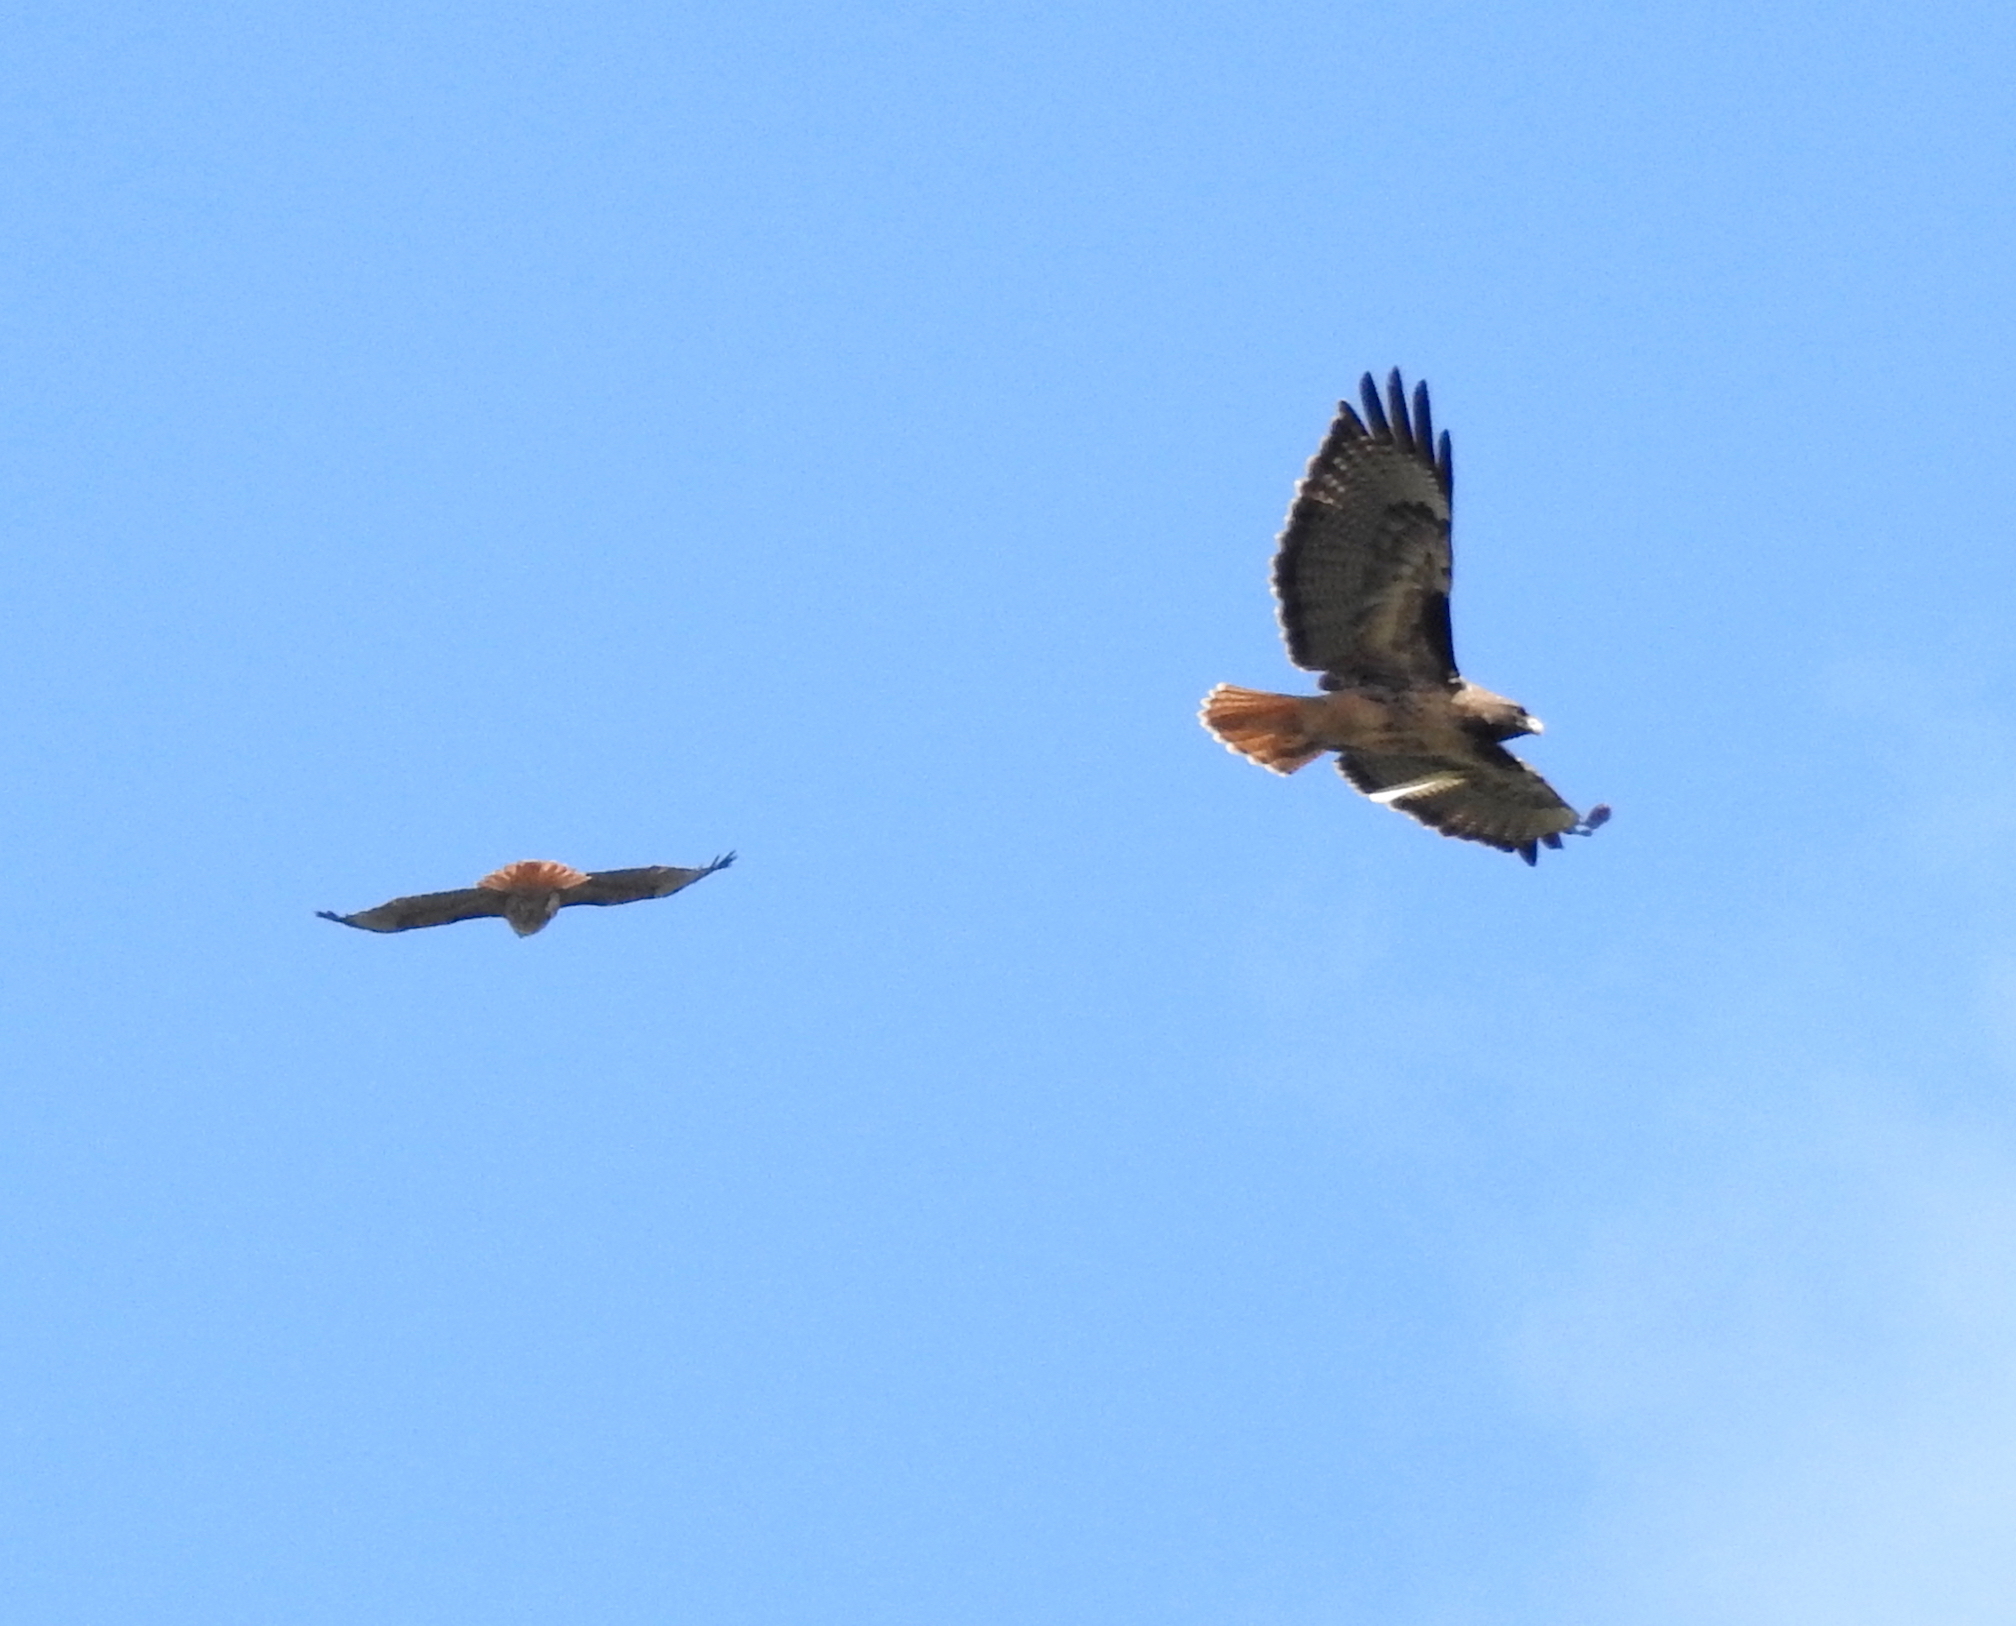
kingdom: Animalia
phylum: Chordata
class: Aves
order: Accipitriformes
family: Accipitridae
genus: Buteo
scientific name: Buteo jamaicensis
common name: Red-tailed hawk
